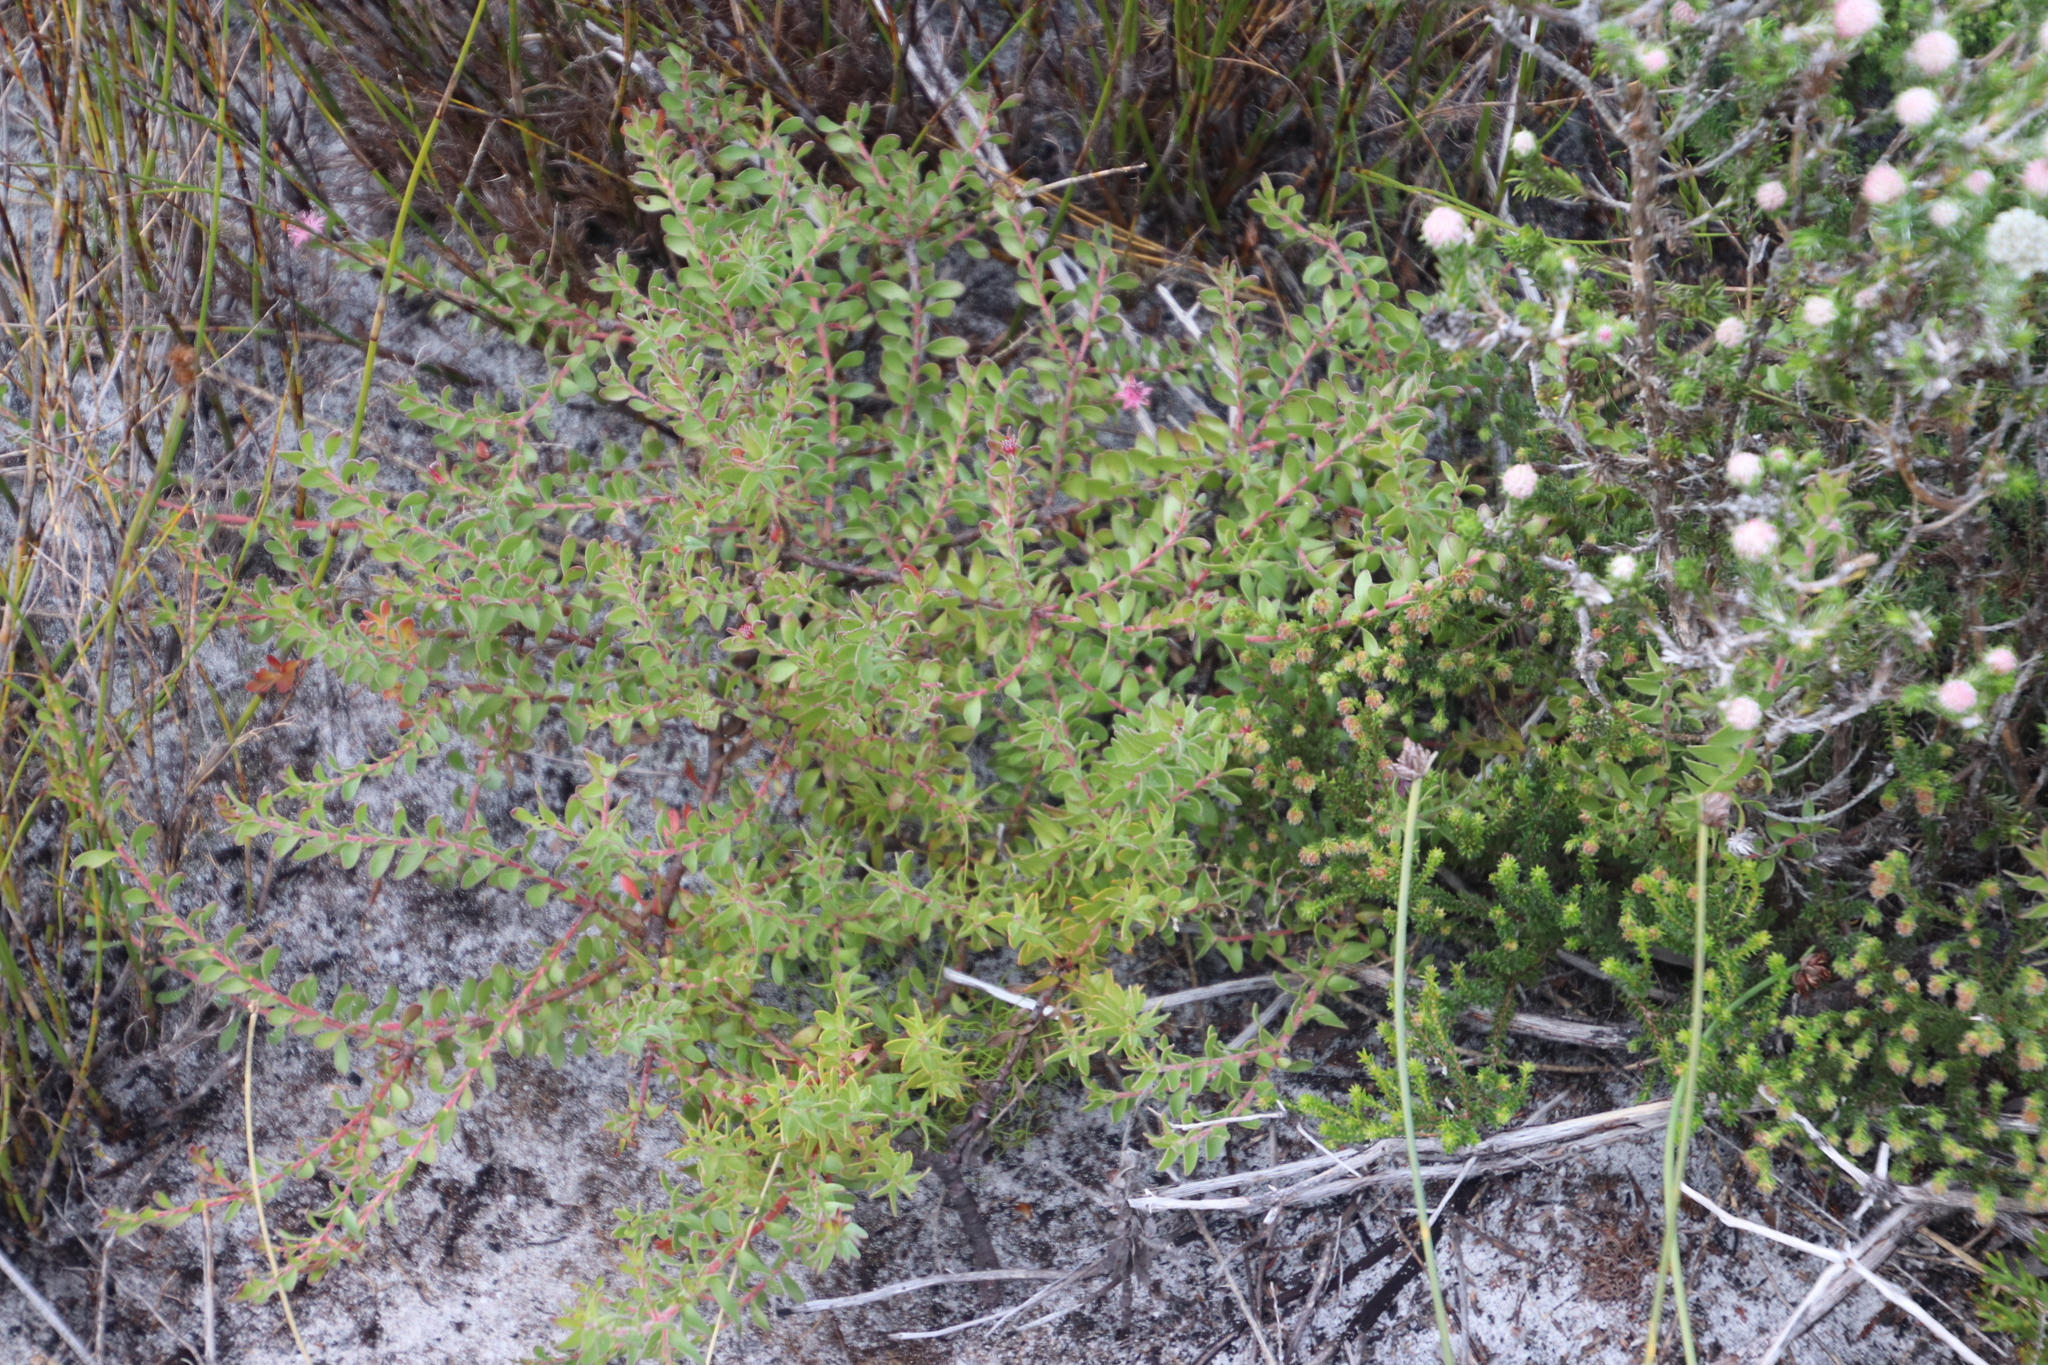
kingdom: Plantae
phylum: Tracheophyta
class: Magnoliopsida
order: Proteales
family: Proteaceae
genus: Diastella
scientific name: Diastella divaricata
